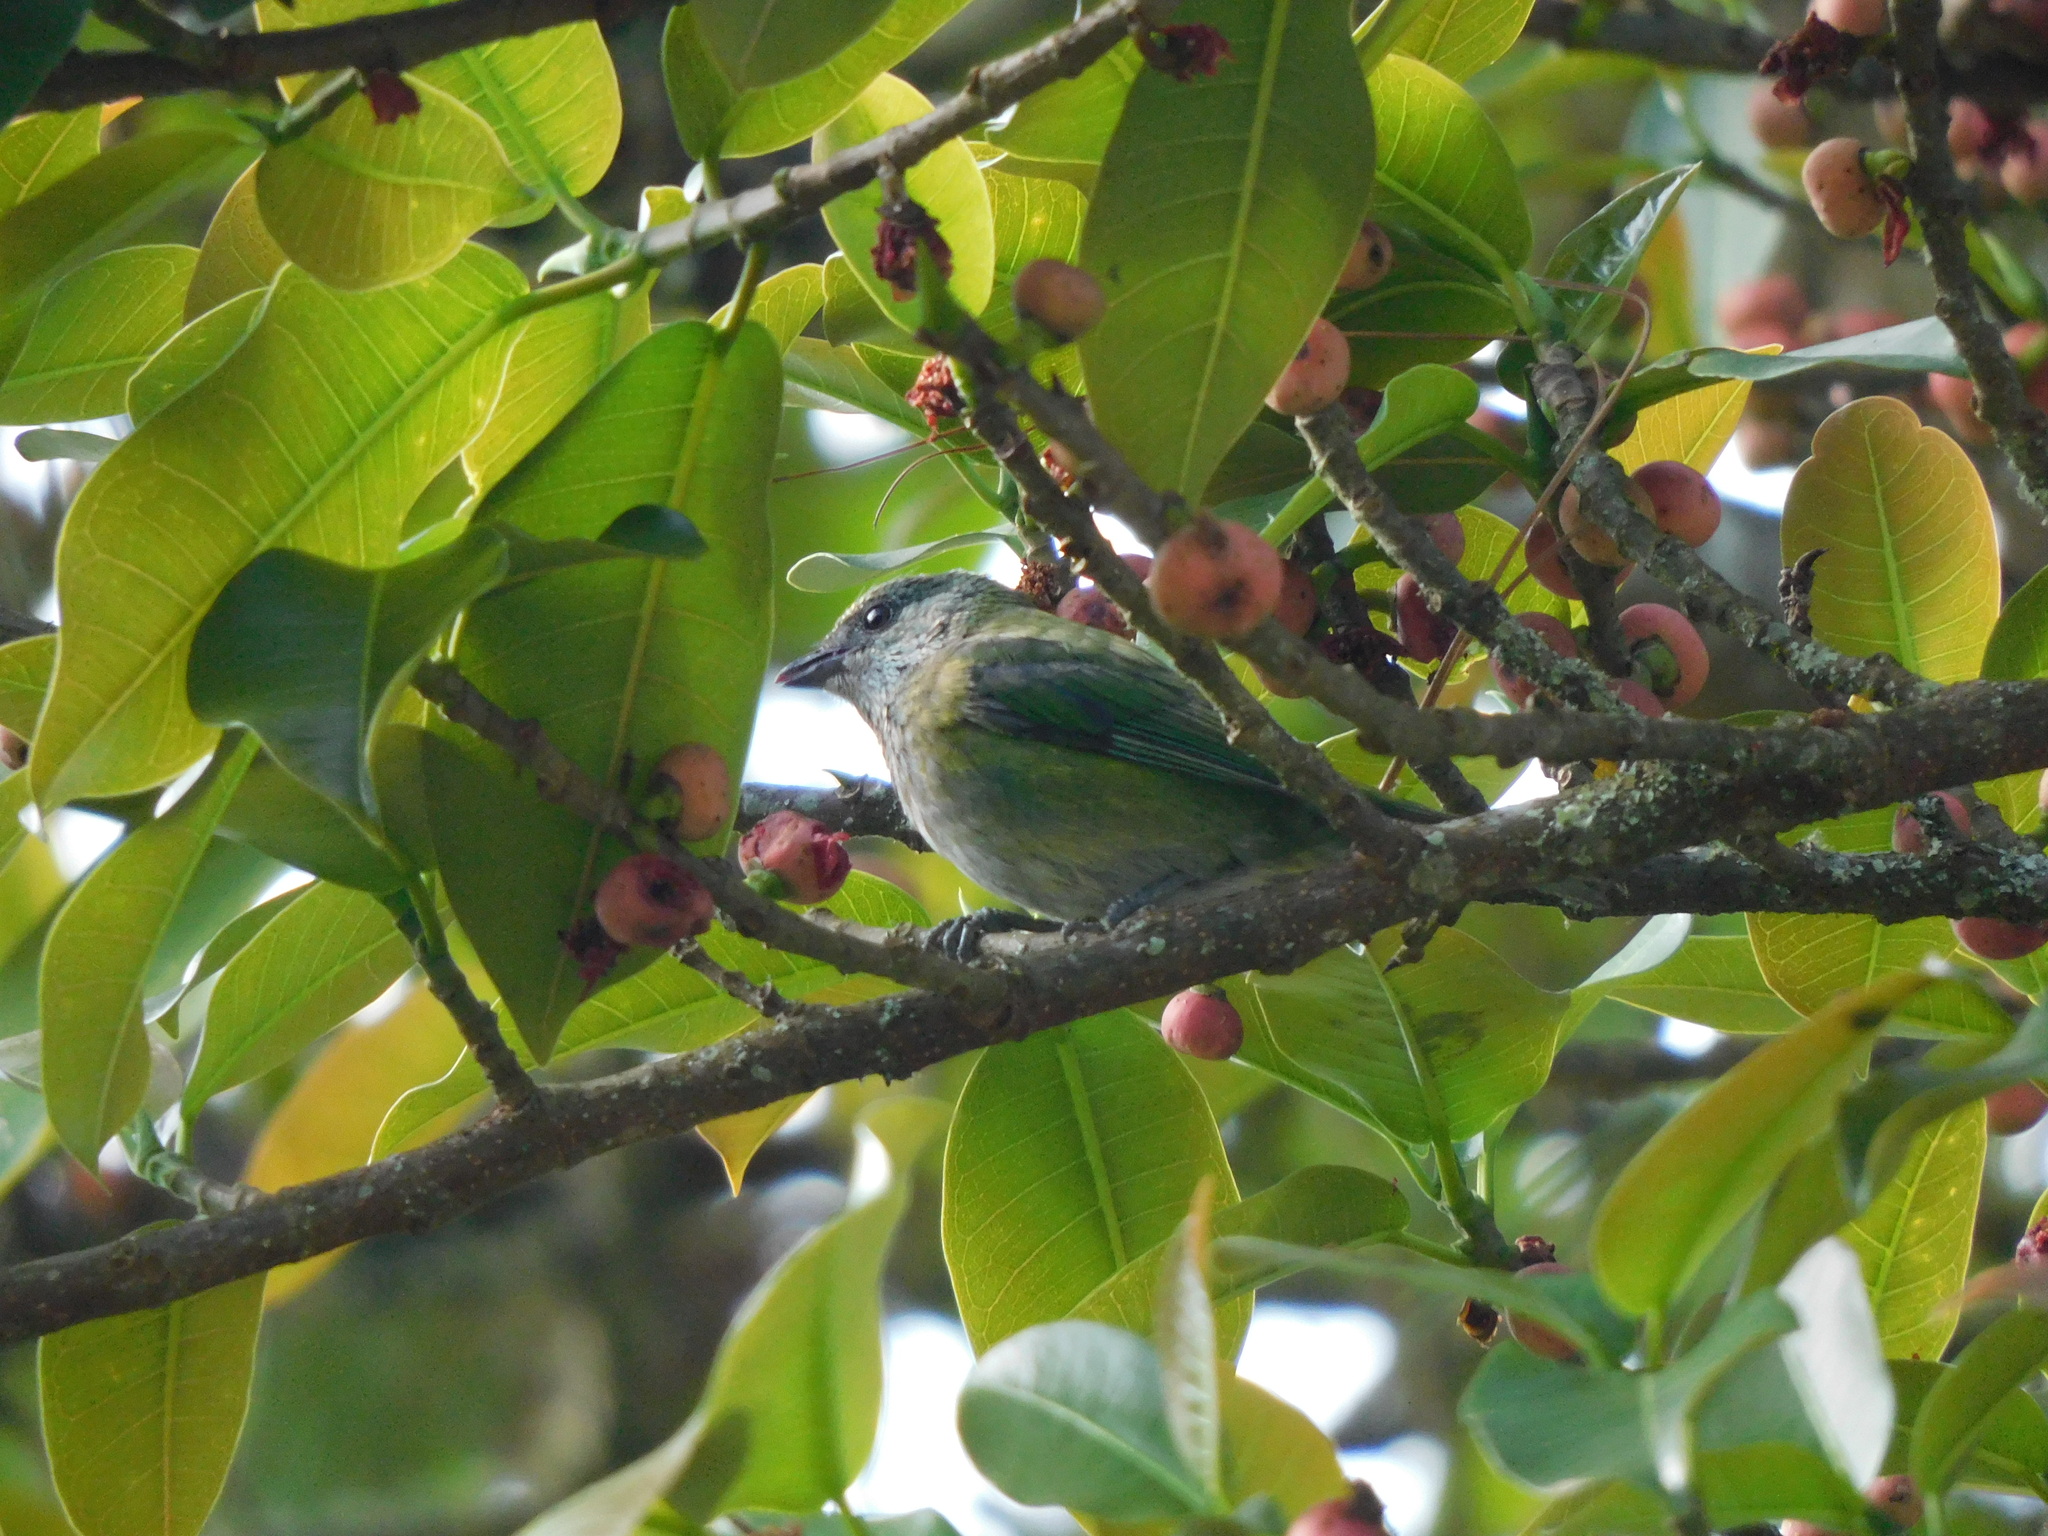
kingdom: Animalia
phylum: Chordata
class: Aves
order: Passeriformes
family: Thraupidae
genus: Stilpnia
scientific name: Stilpnia heinei
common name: Black-capped tanager
